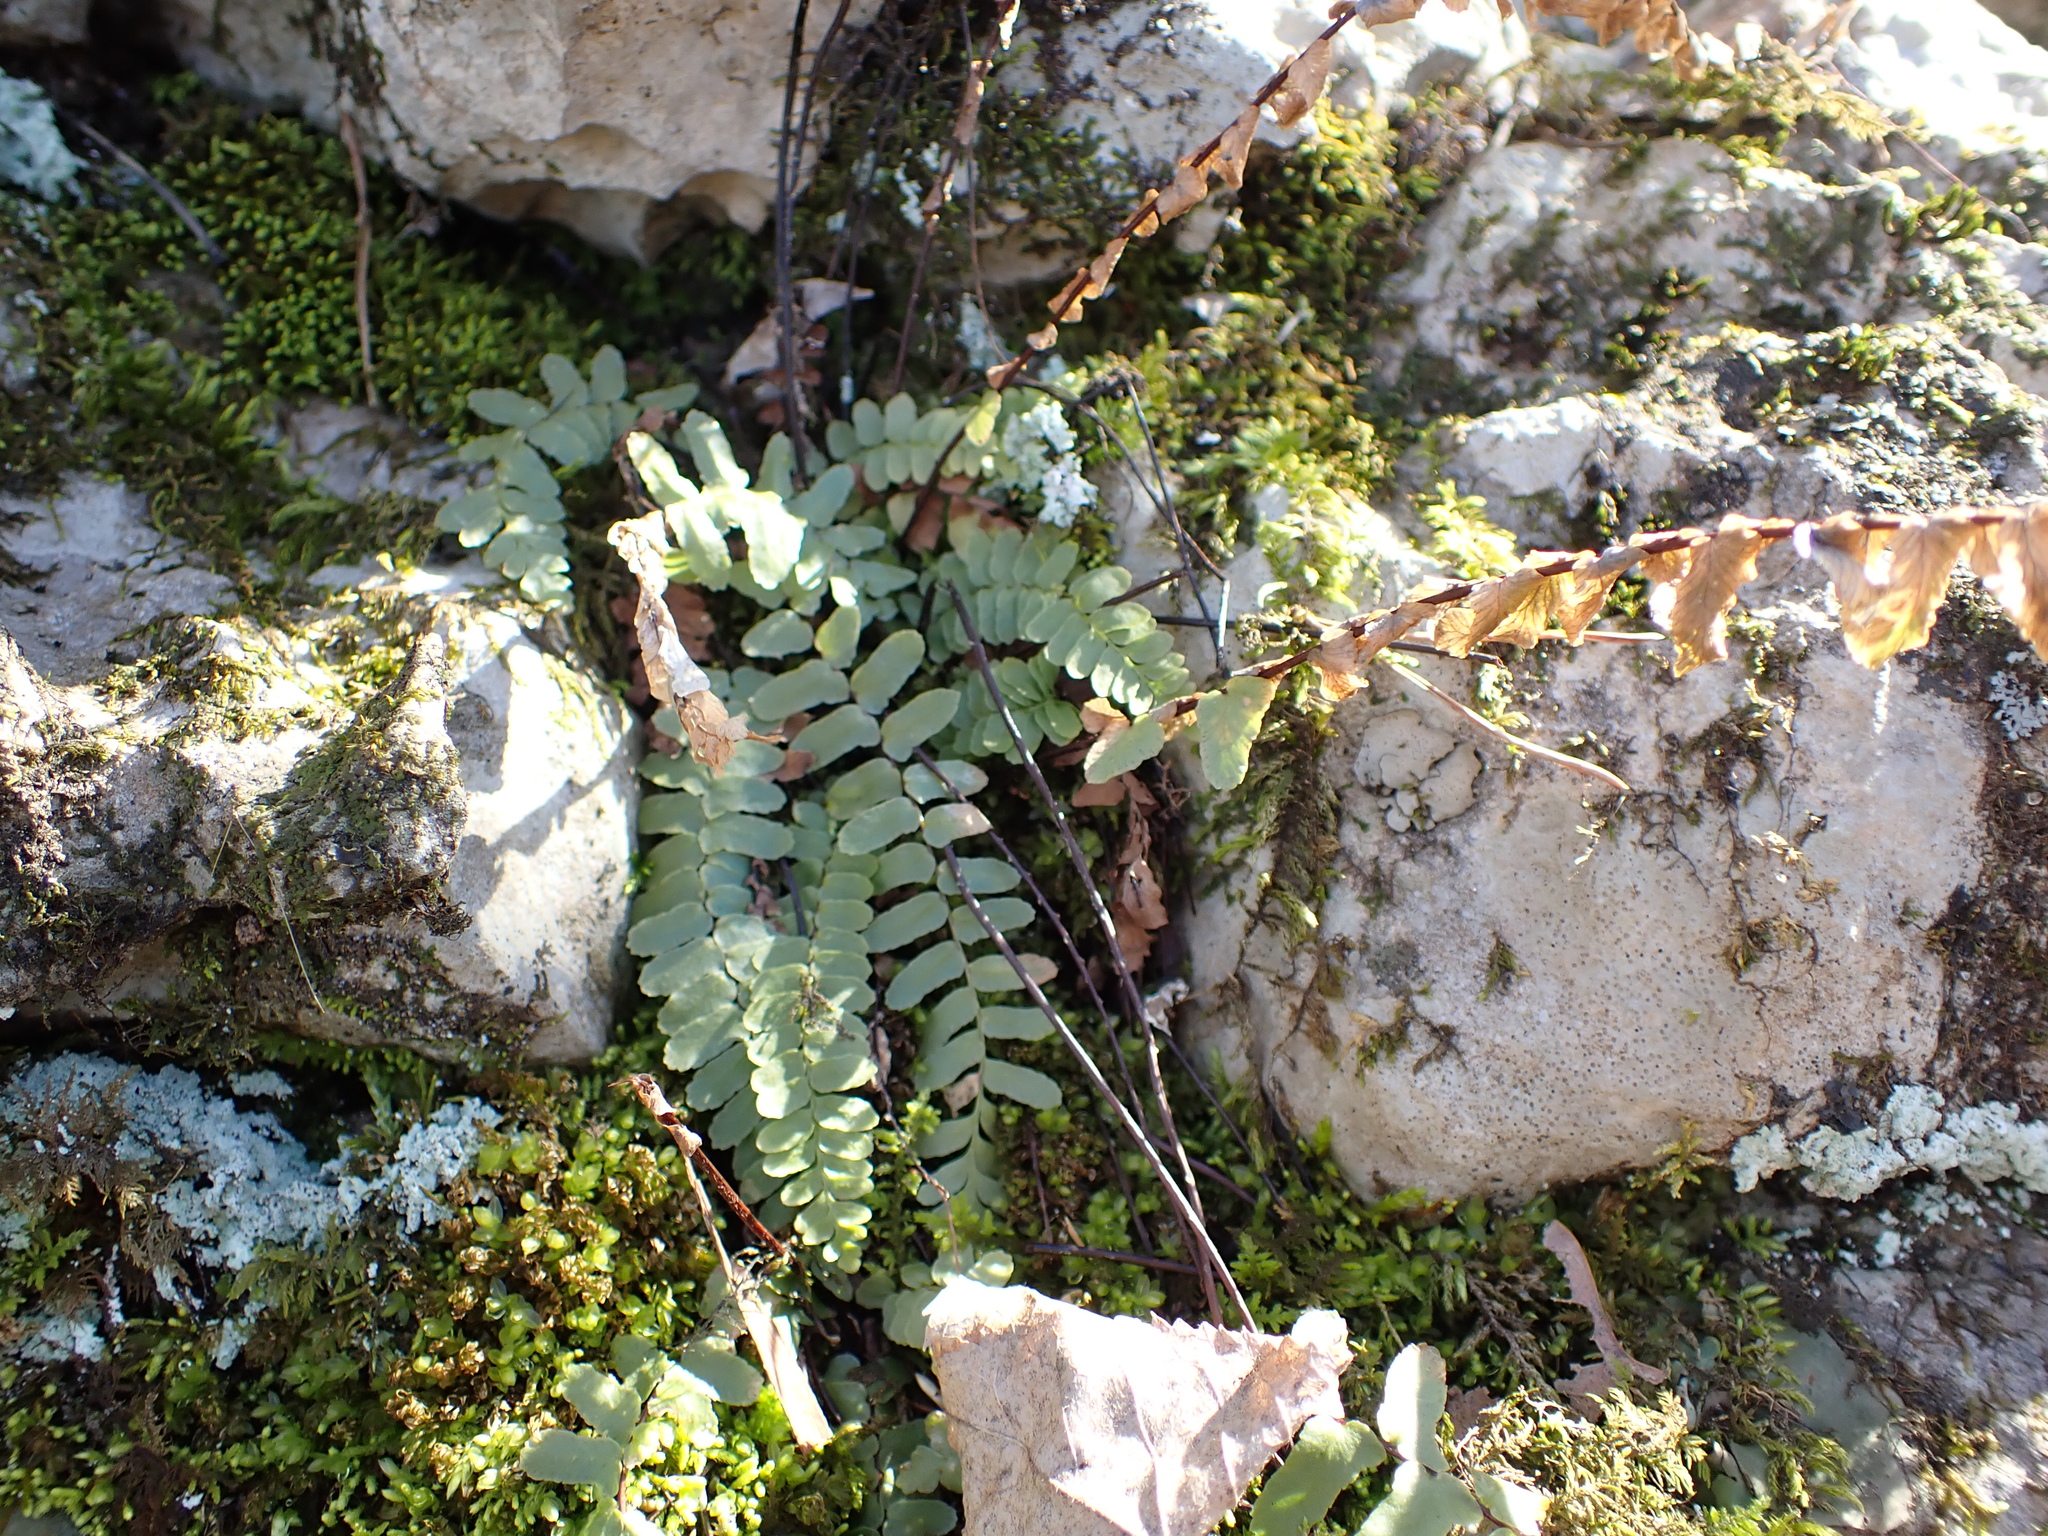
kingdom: Plantae
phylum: Tracheophyta
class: Polypodiopsida
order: Polypodiales
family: Aspleniaceae
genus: Asplenium
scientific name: Asplenium platyneuron
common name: Ebony spleenwort
